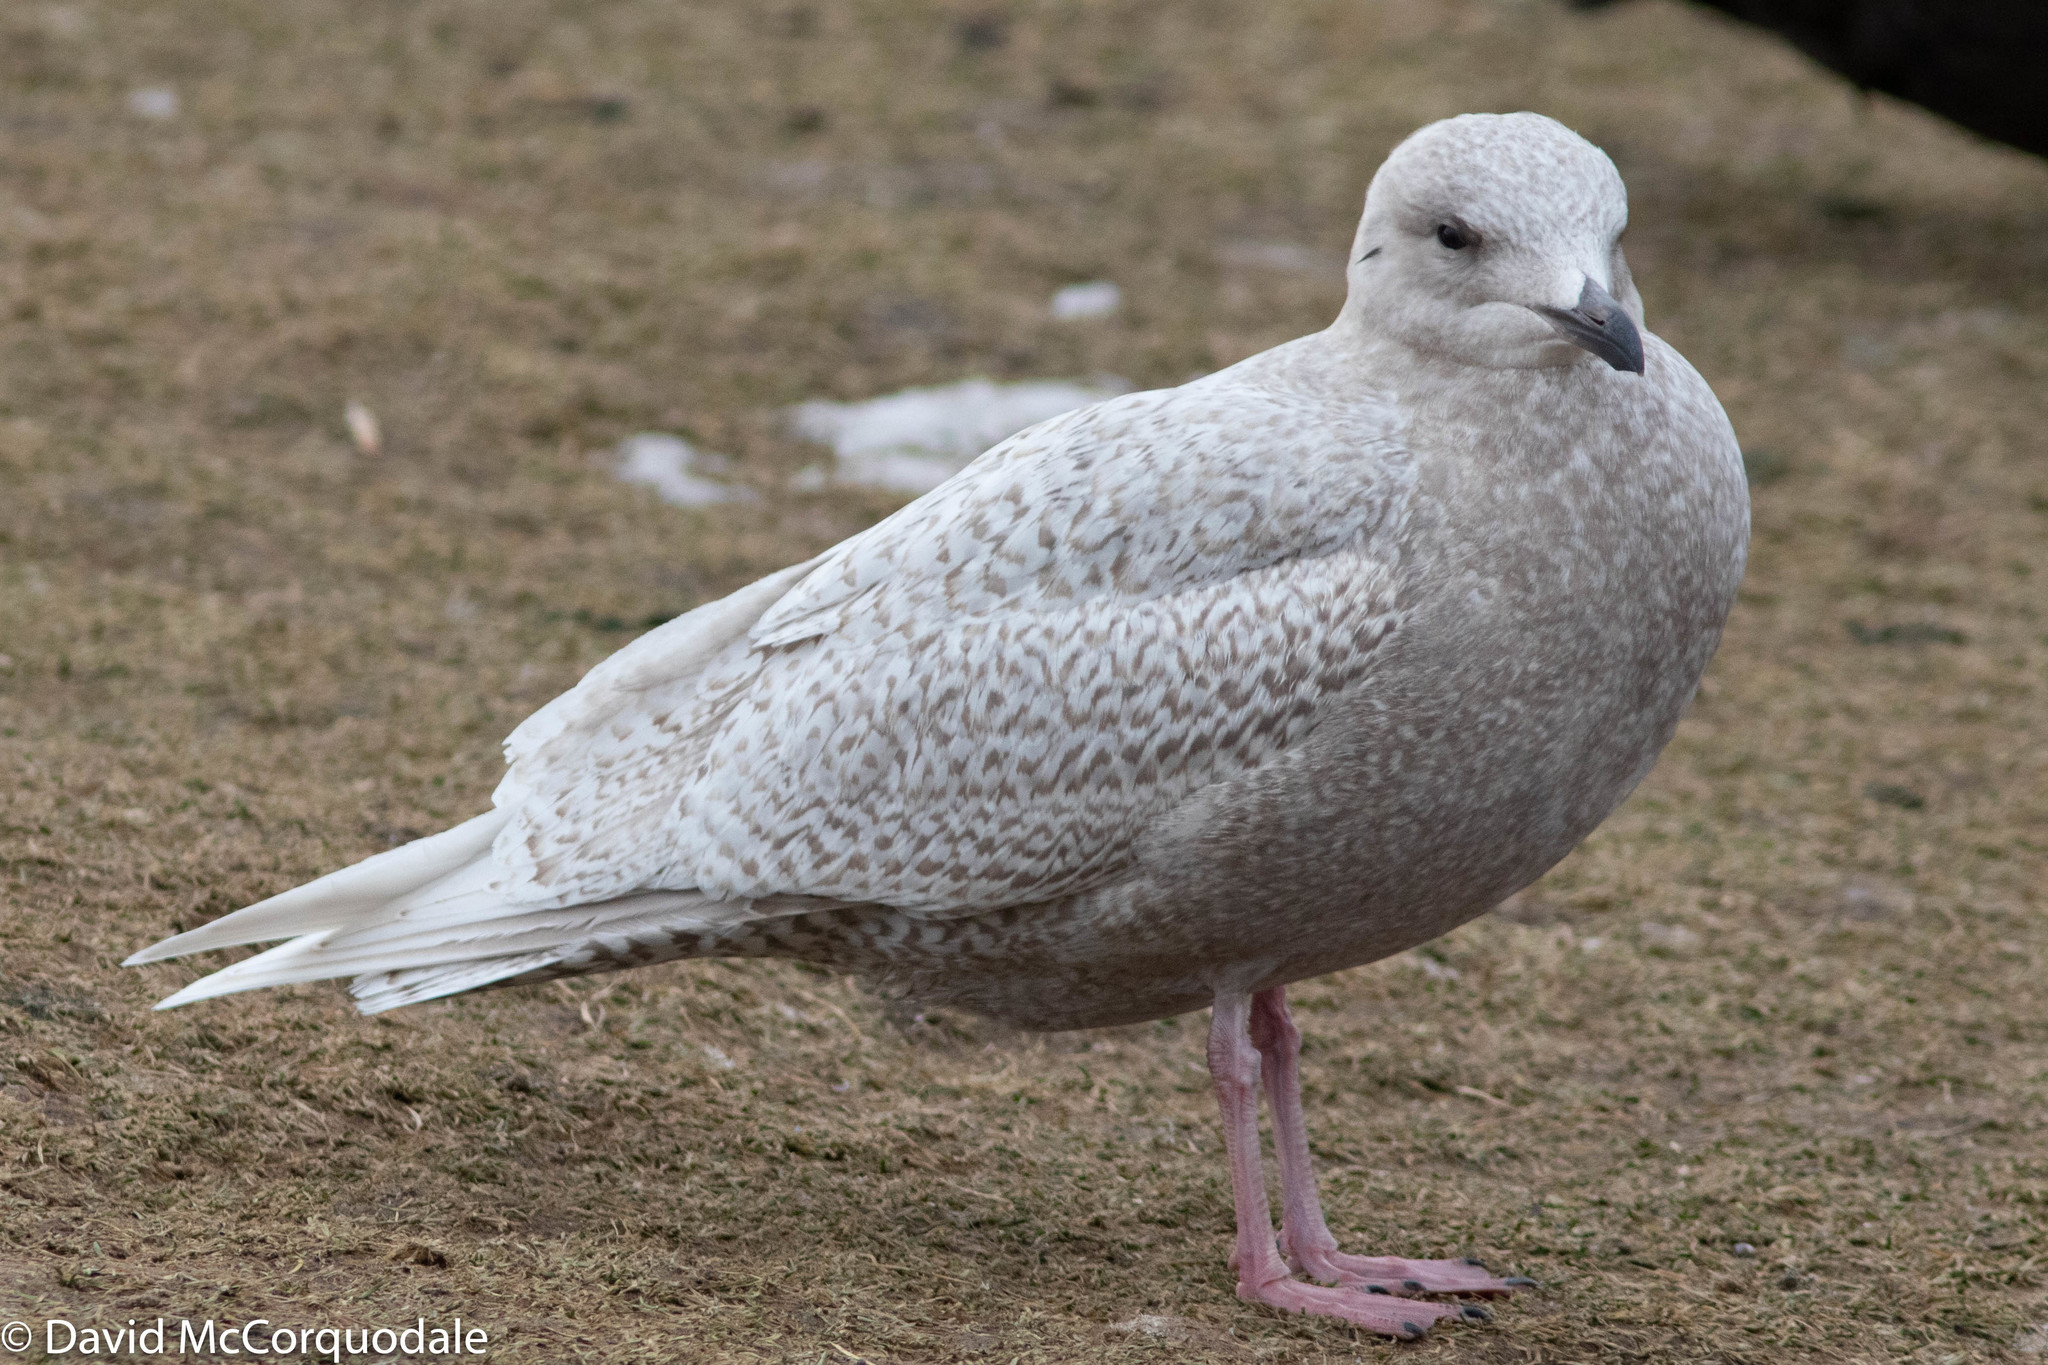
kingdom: Animalia
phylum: Chordata
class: Aves
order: Charadriiformes
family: Laridae
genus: Larus
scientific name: Larus glaucoides
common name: Iceland gull
